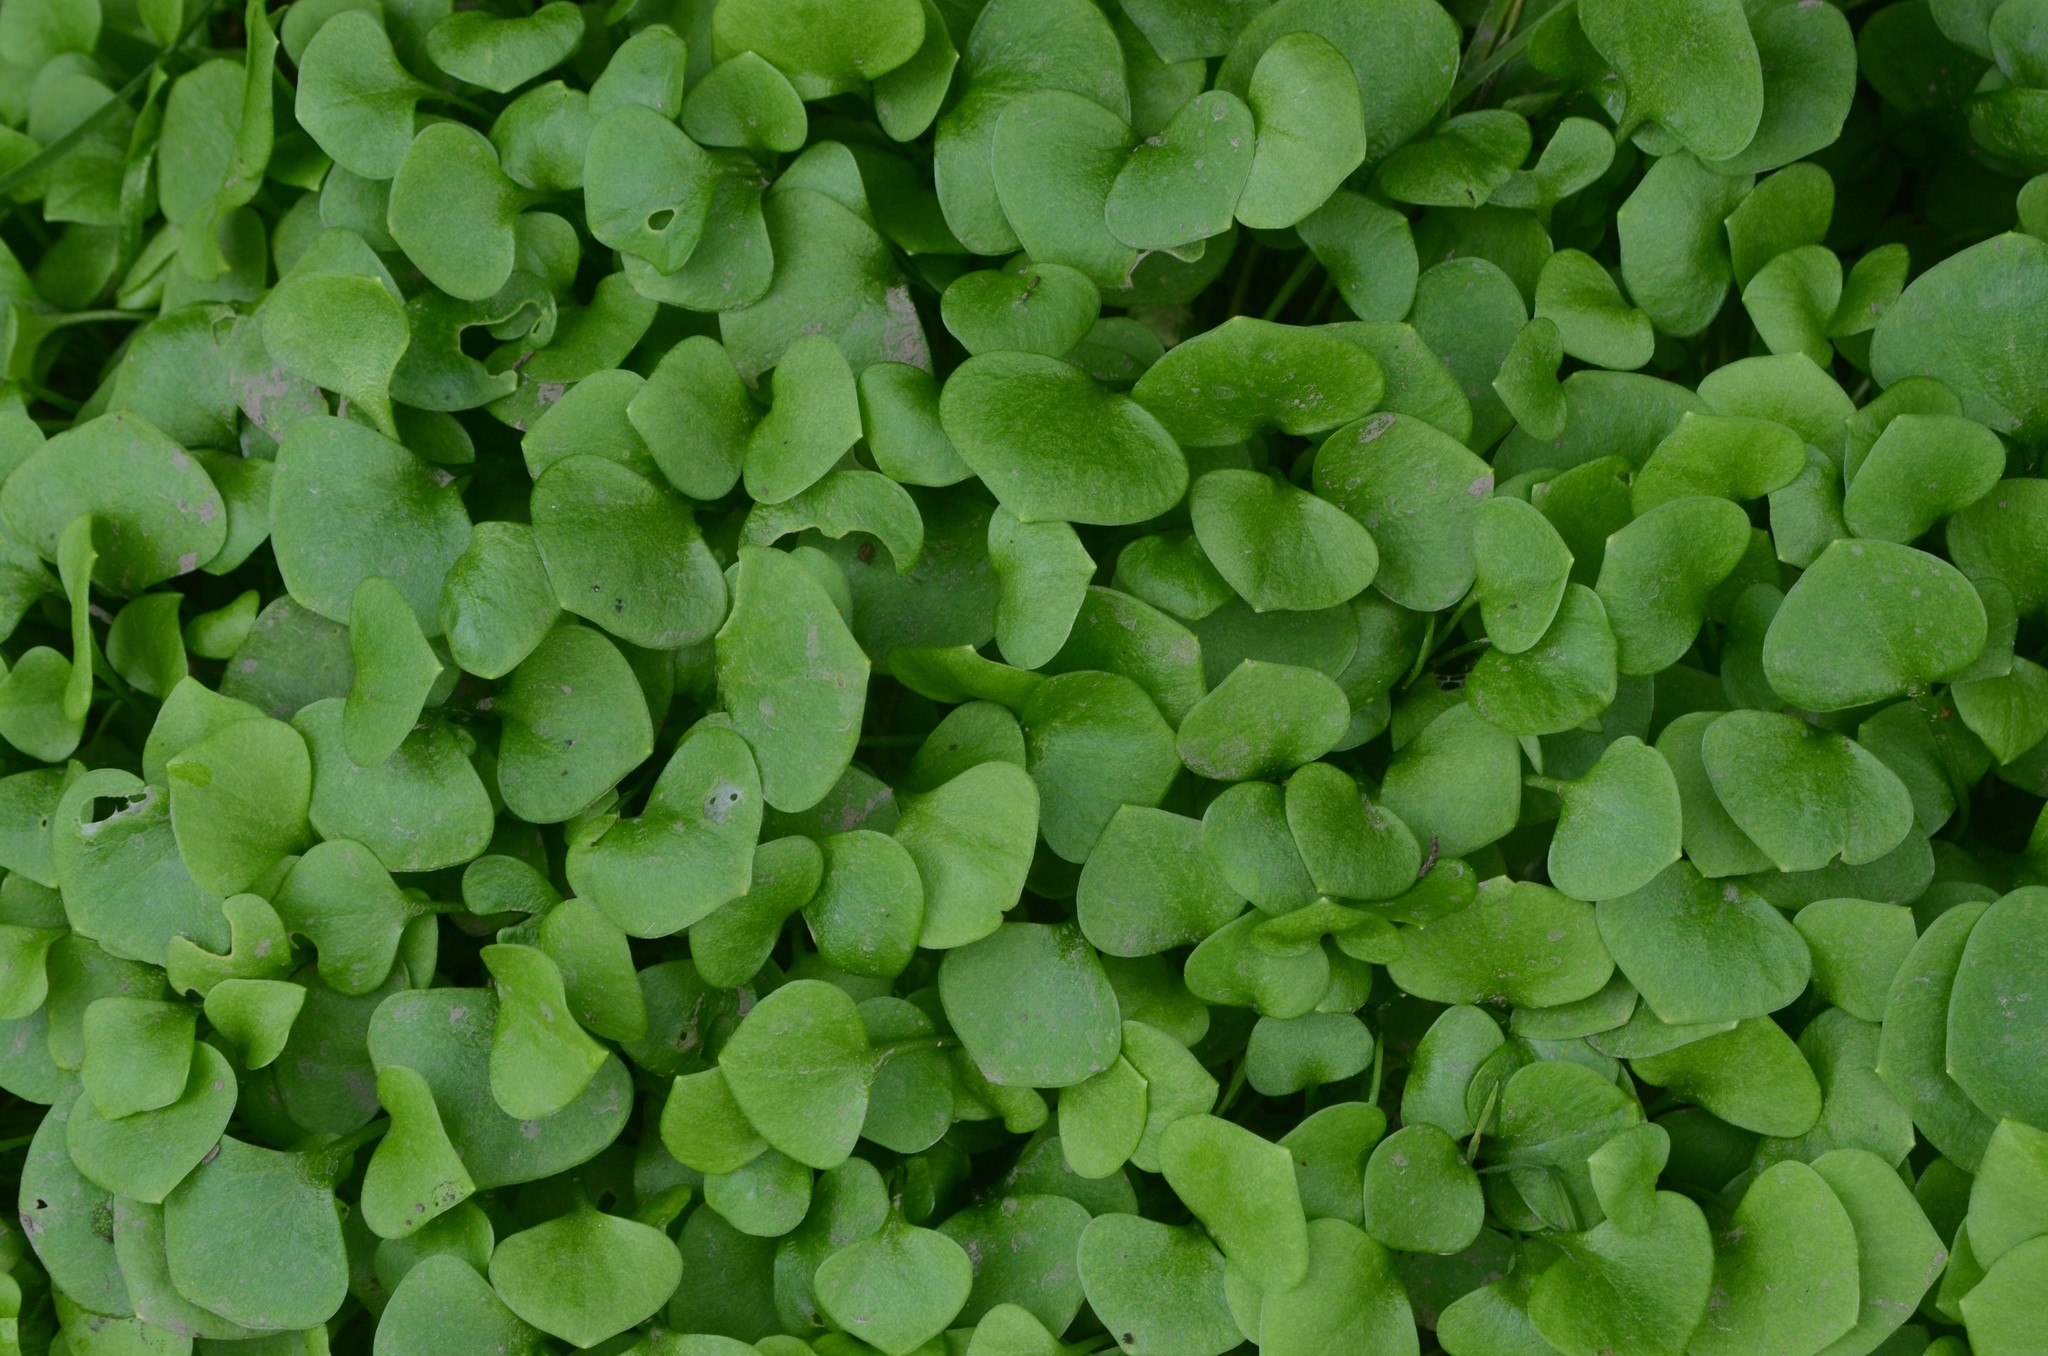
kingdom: Plantae
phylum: Tracheophyta
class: Magnoliopsida
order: Caryophyllales
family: Montiaceae
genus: Claytonia
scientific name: Claytonia perfoliata
